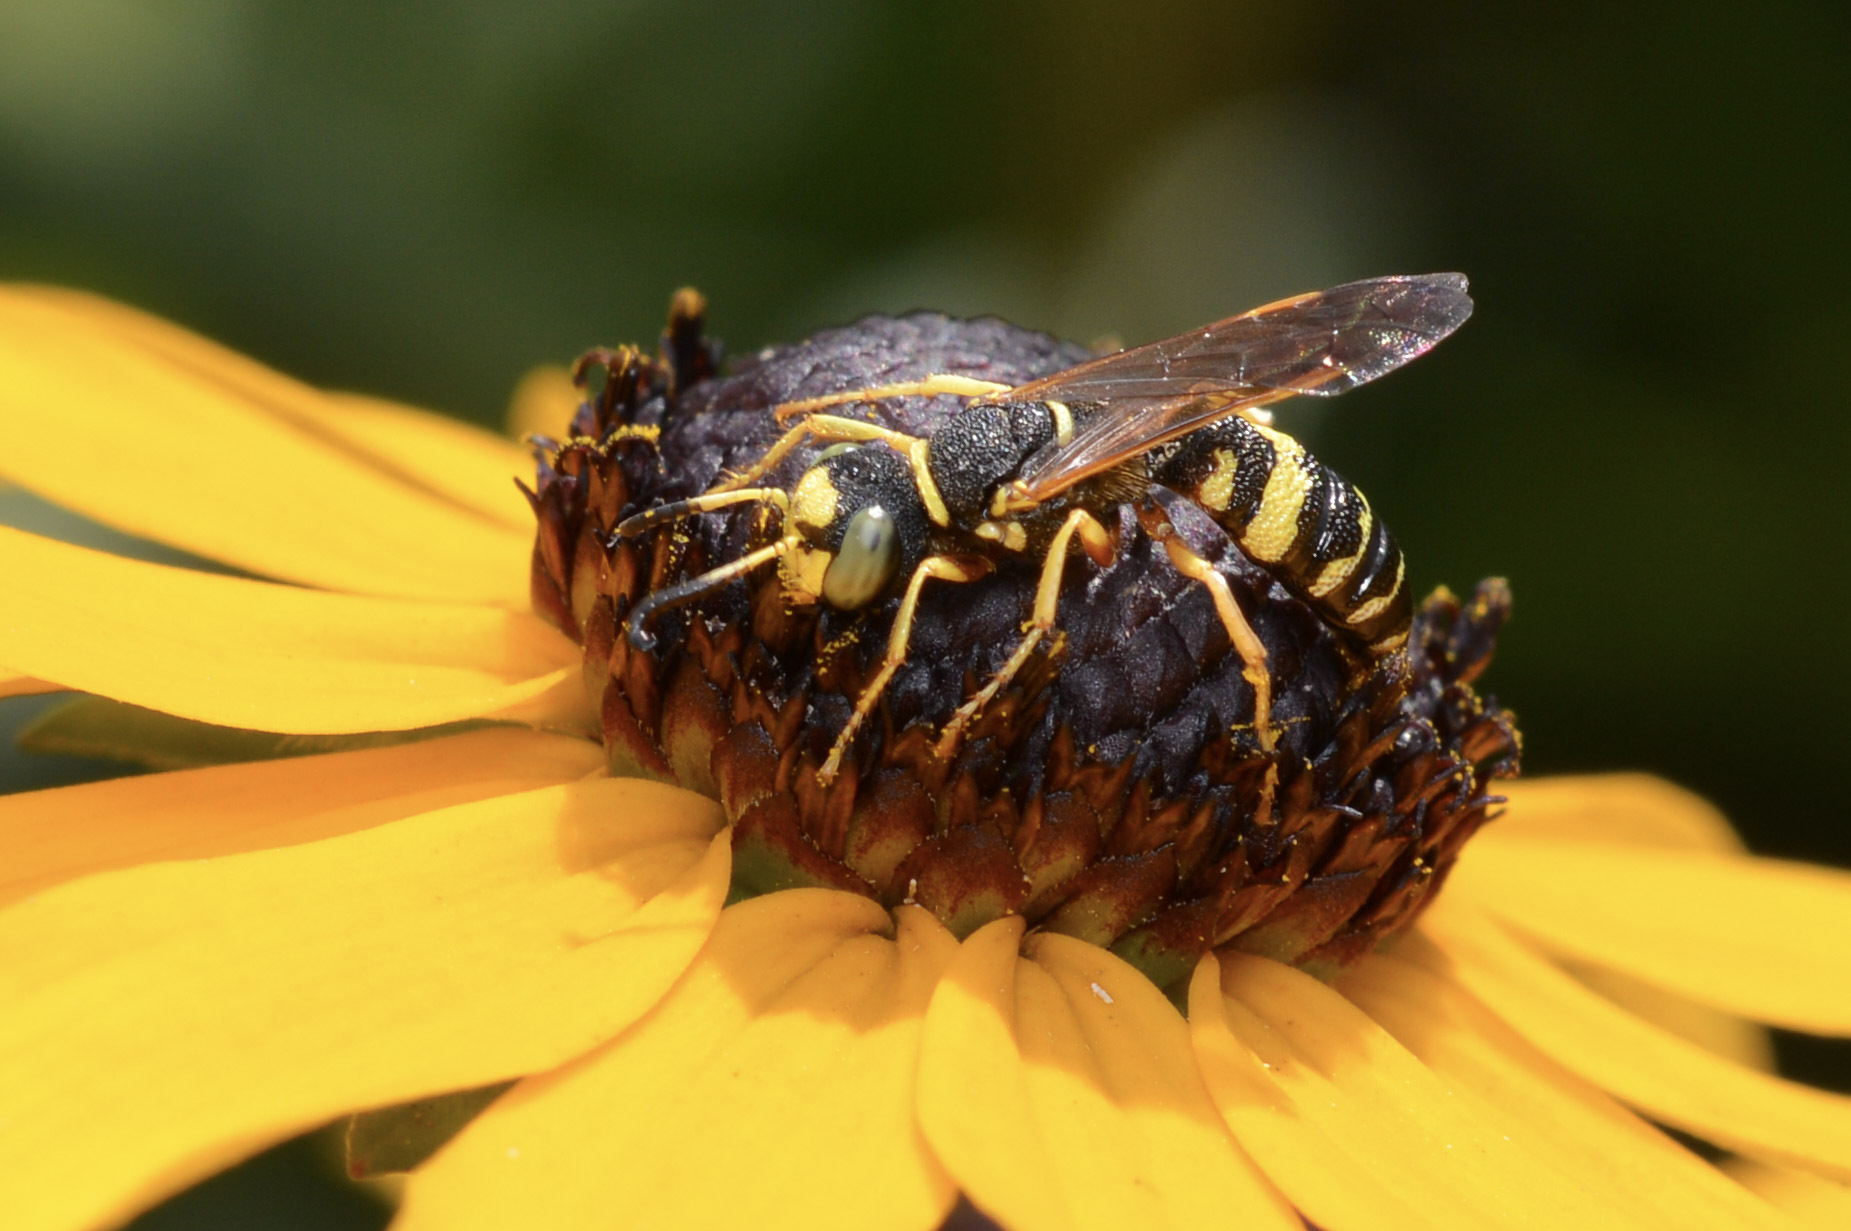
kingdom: Animalia
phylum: Arthropoda
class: Insecta
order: Hymenoptera
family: Crabronidae
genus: Philanthus
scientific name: Philanthus ventilabris
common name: Bee-killer wasp
